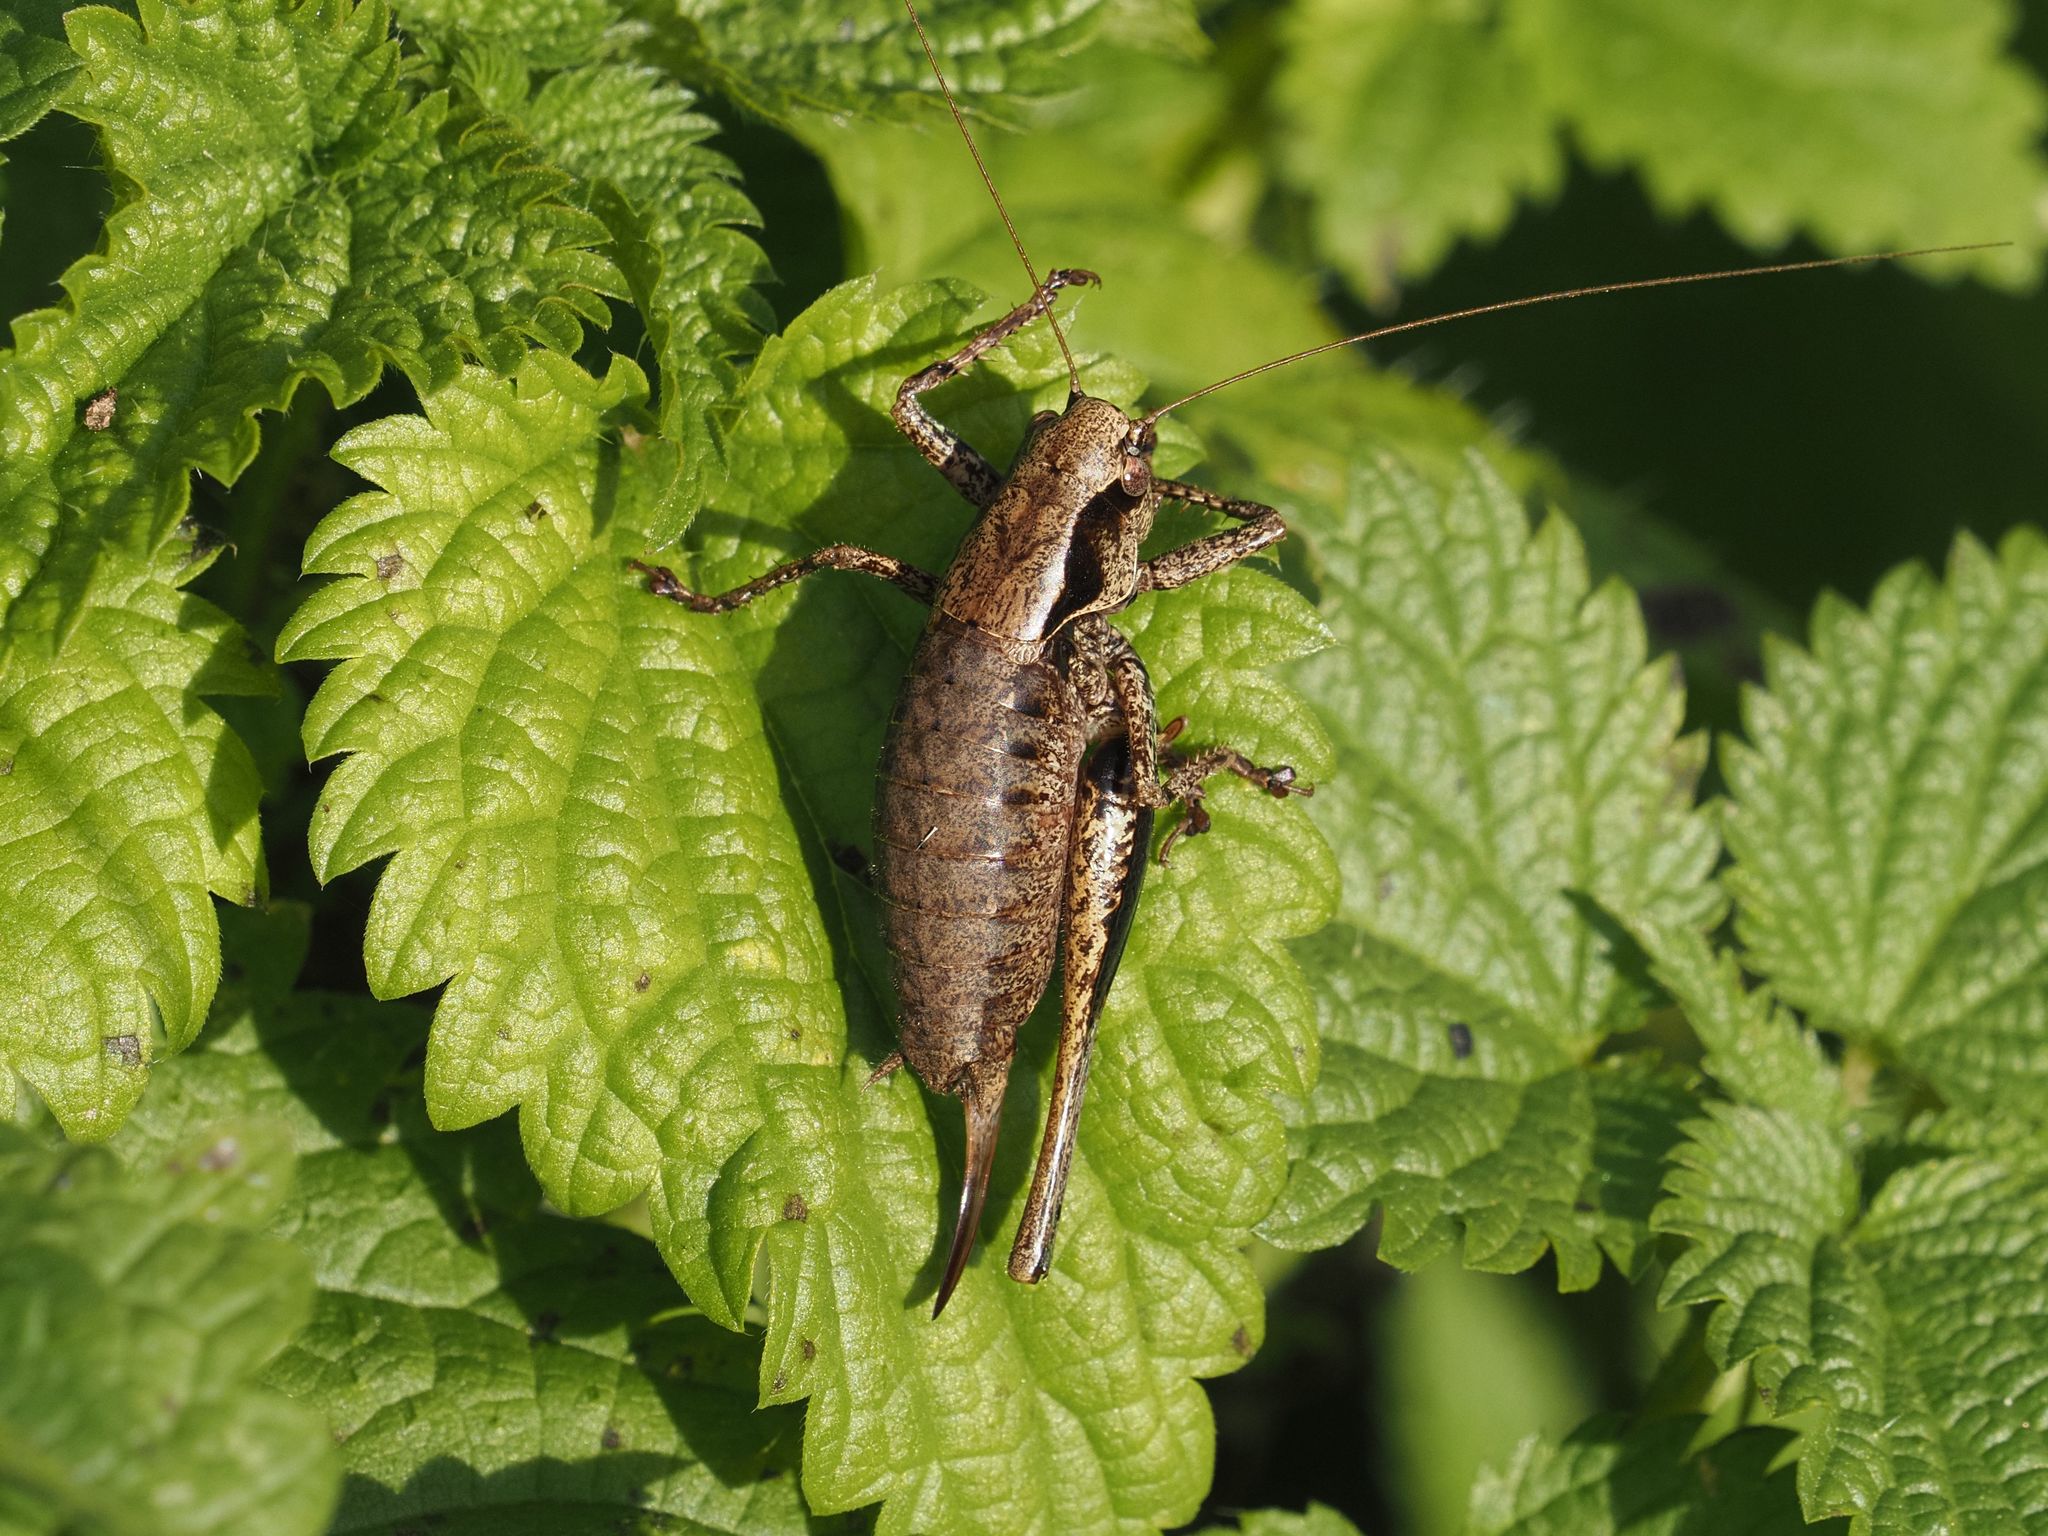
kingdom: Animalia
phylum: Arthropoda
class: Insecta
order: Orthoptera
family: Tettigoniidae
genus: Pholidoptera
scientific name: Pholidoptera griseoaptera
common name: Dark bush-cricket
